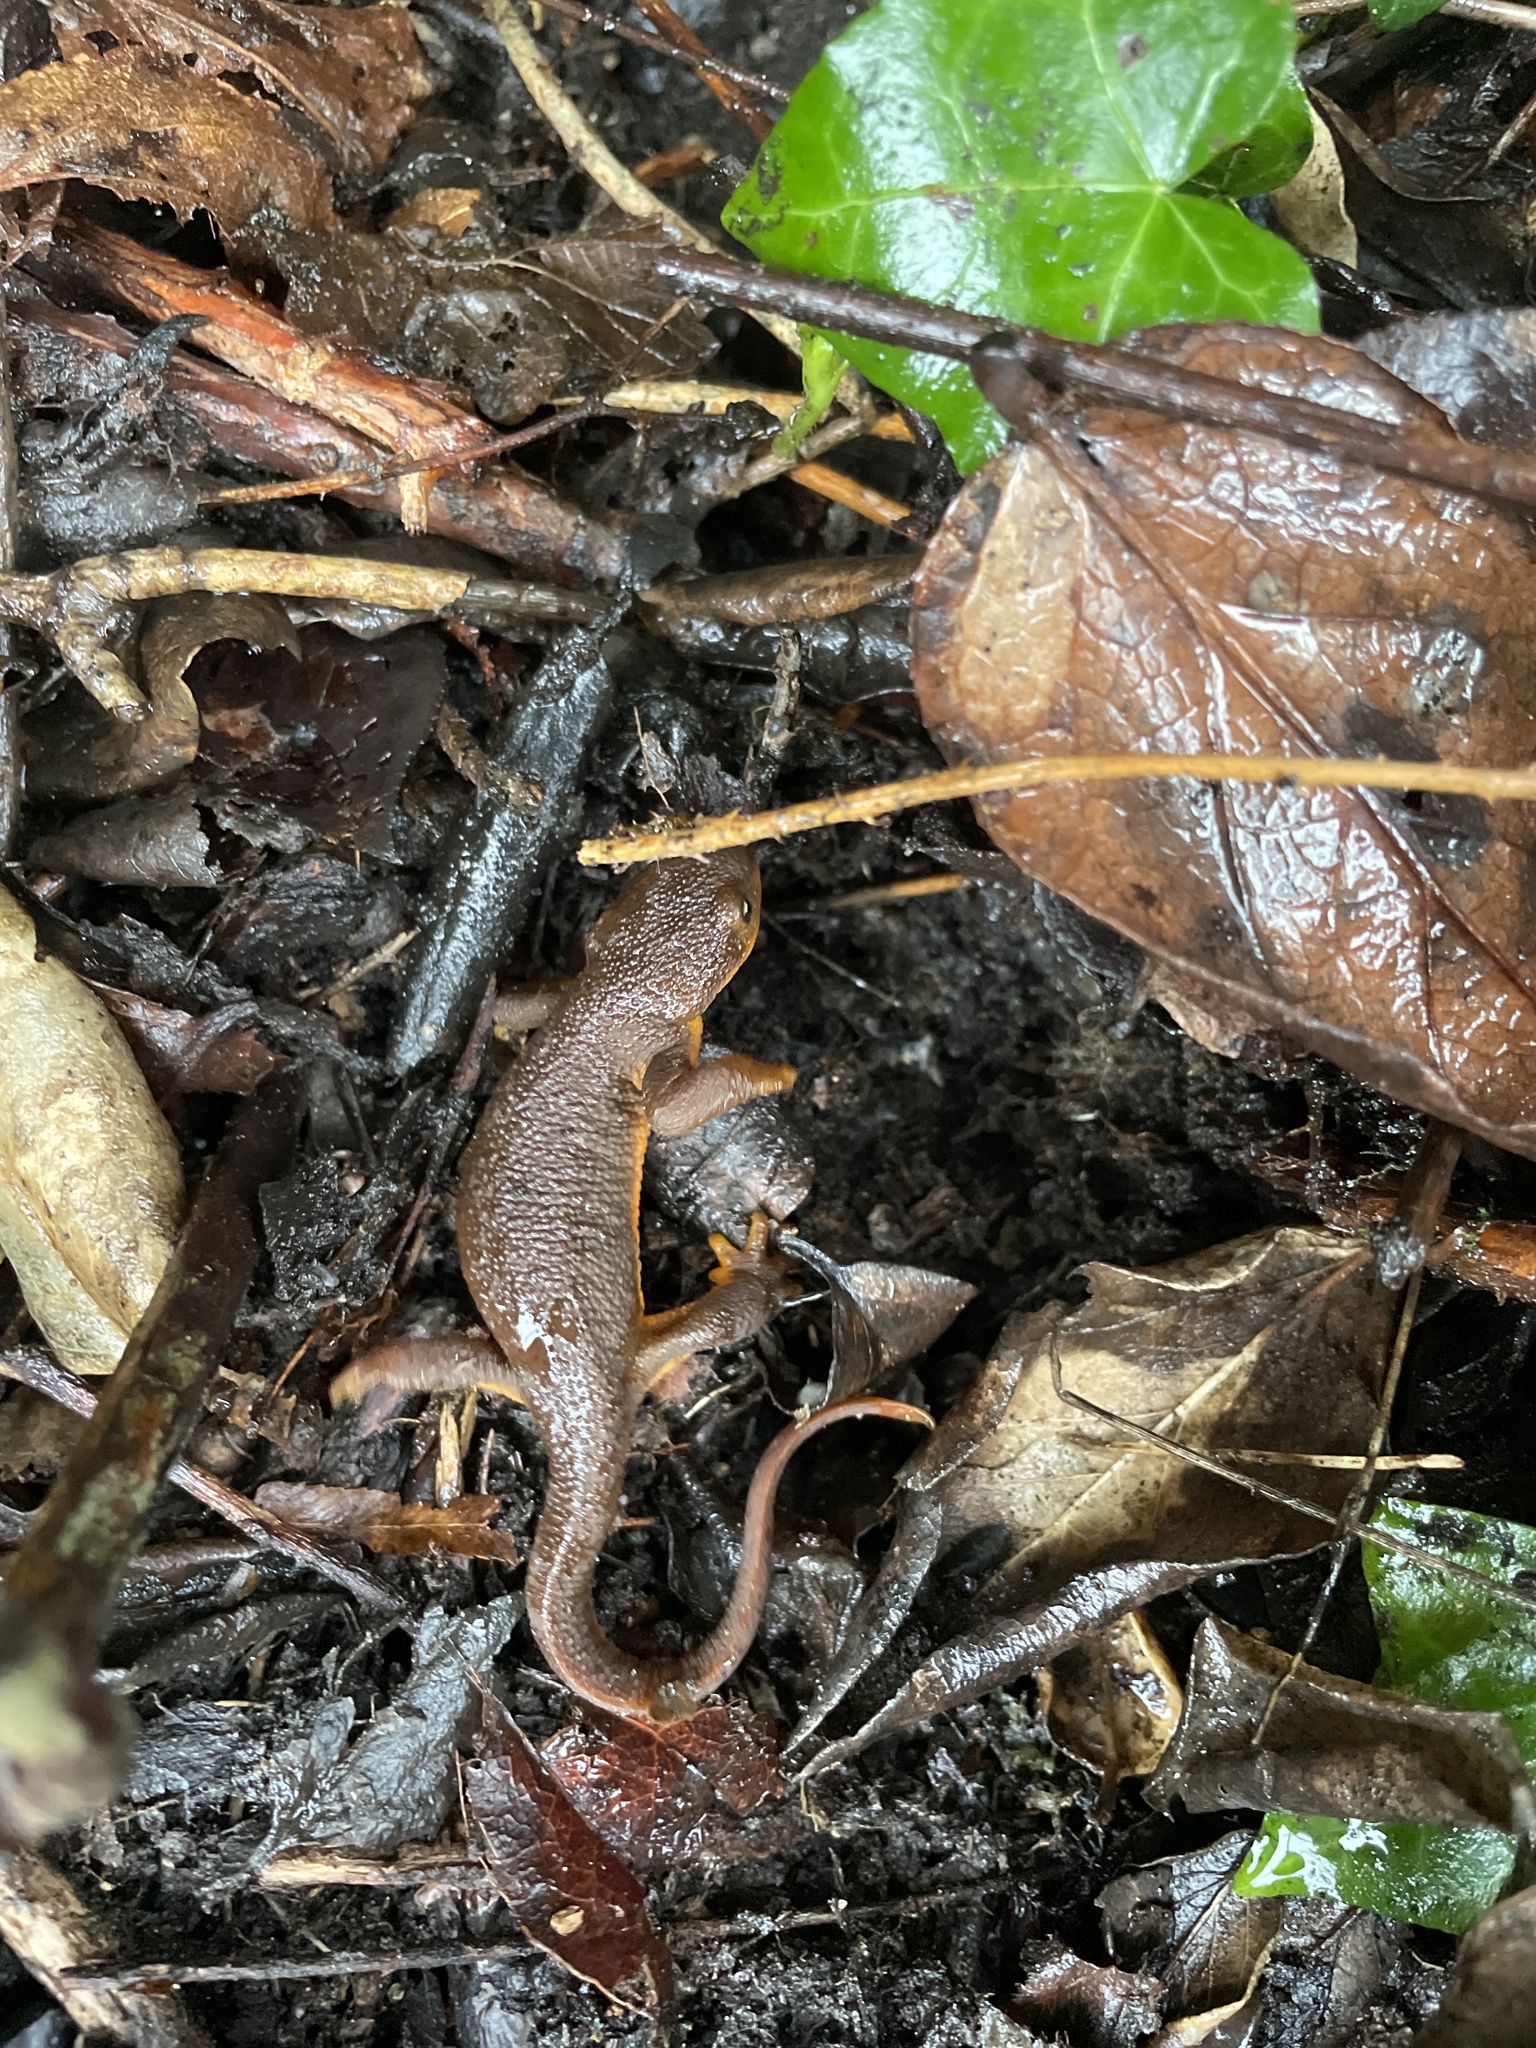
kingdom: Animalia
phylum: Chordata
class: Amphibia
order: Caudata
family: Salamandridae
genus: Taricha
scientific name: Taricha granulosa
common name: Roughskin newt
